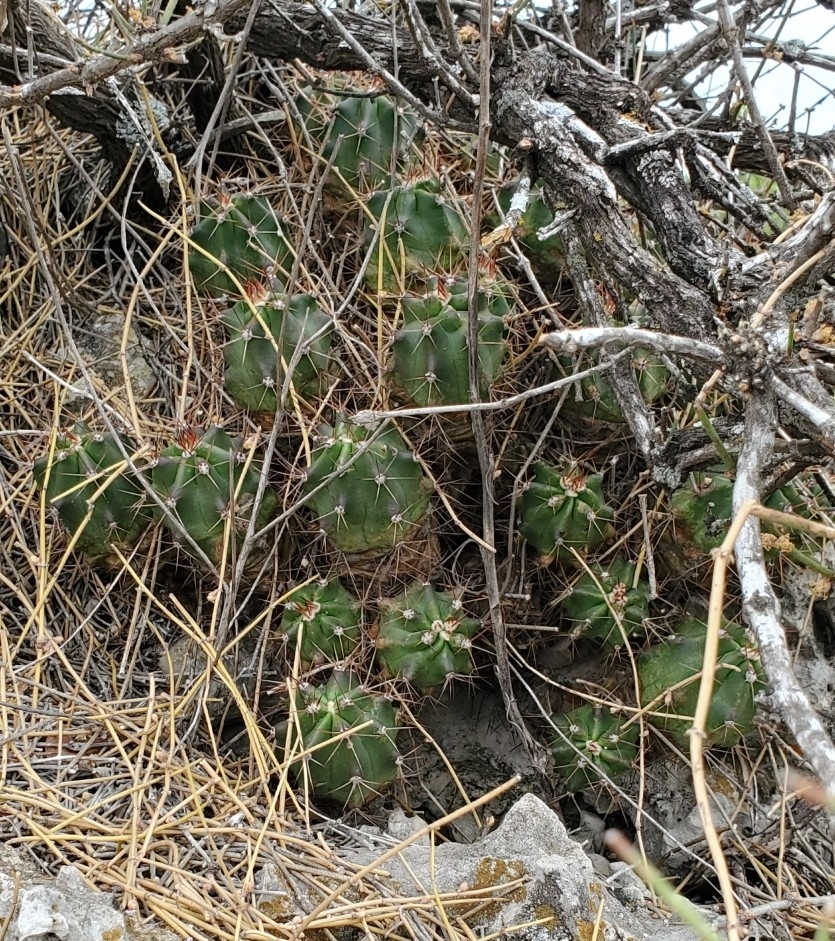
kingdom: Plantae
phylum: Tracheophyta
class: Magnoliopsida
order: Caryophyllales
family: Cactaceae
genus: Echinocereus
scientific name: Echinocereus coccineus
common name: Scarlet hedgehog cactus
